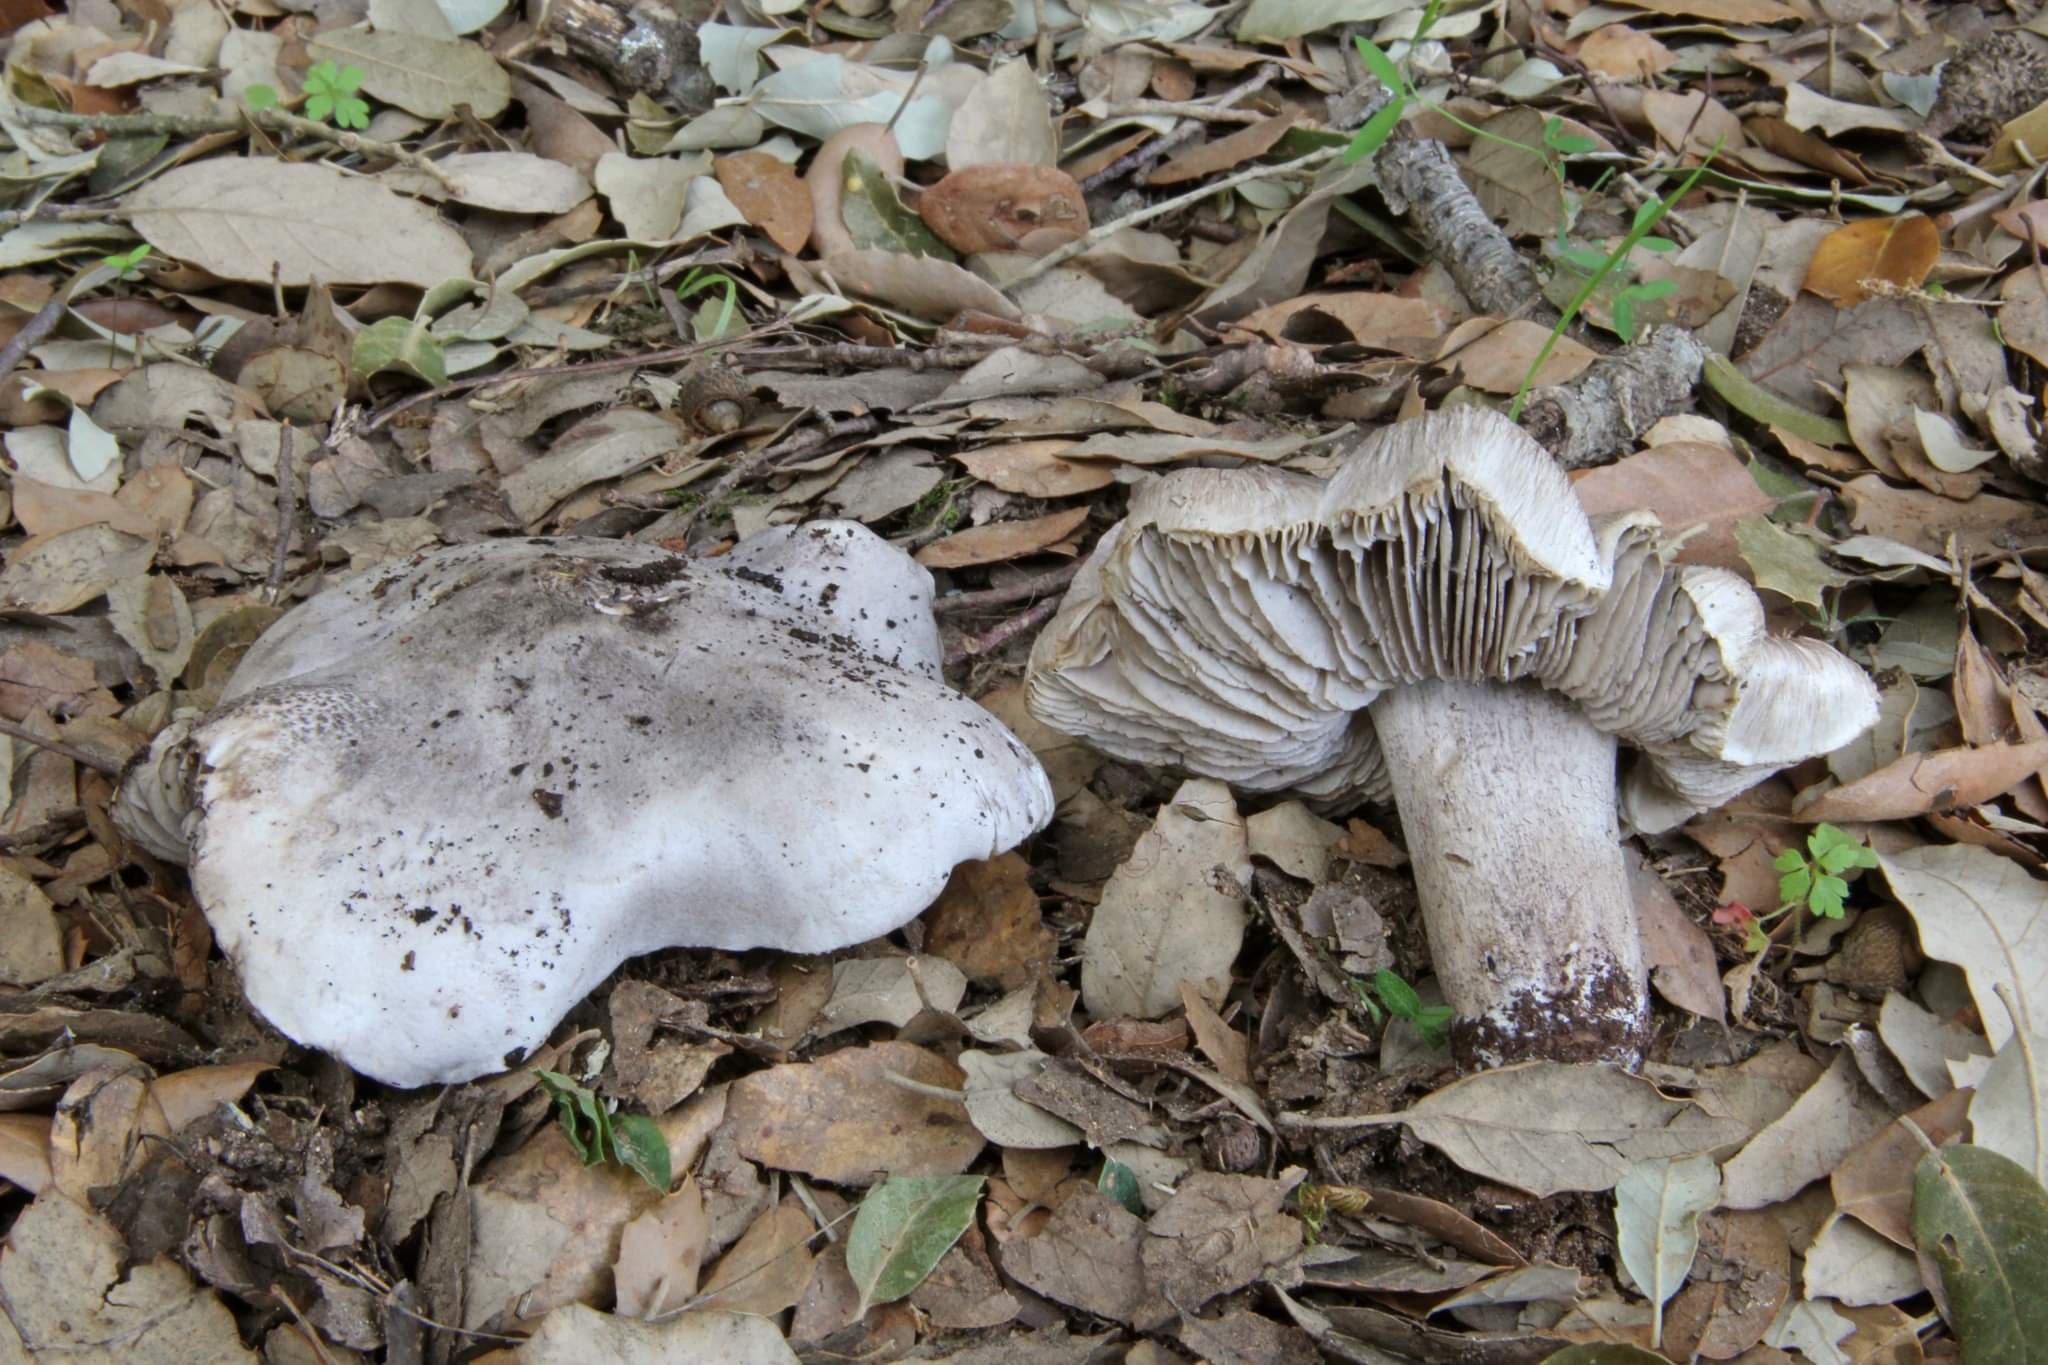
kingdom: Fungi
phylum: Basidiomycota
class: Agaricomycetes
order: Agaricales
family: Tricholomataceae
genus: Tricholoma
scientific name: Tricholoma bresadolanum
